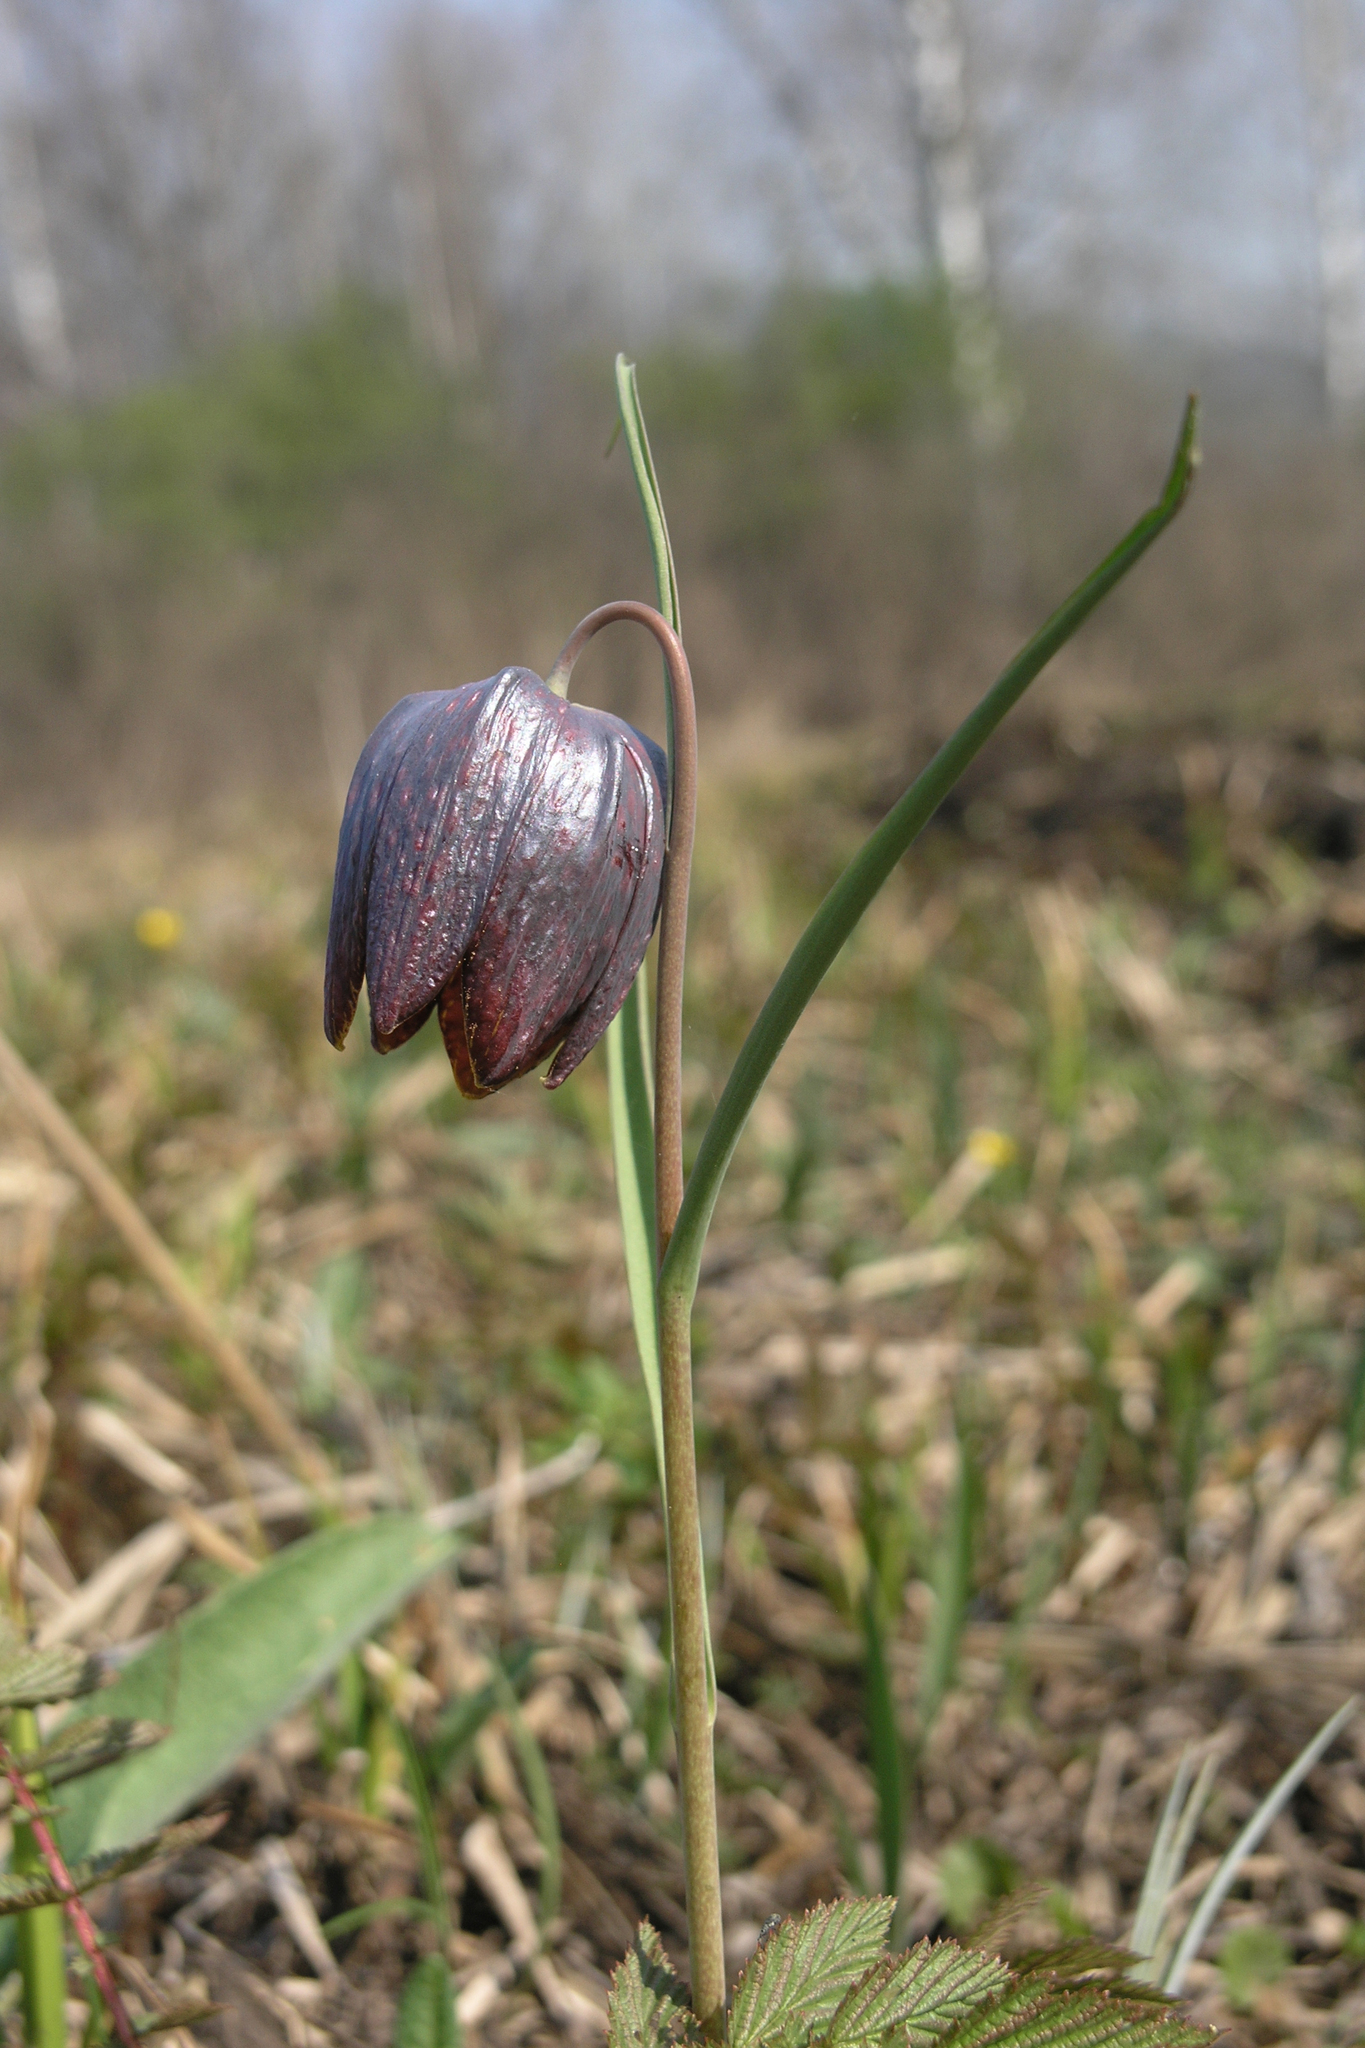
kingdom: Plantae
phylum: Tracheophyta
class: Liliopsida
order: Liliales
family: Liliaceae
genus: Fritillaria
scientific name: Fritillaria meleagris
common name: Fritillary
